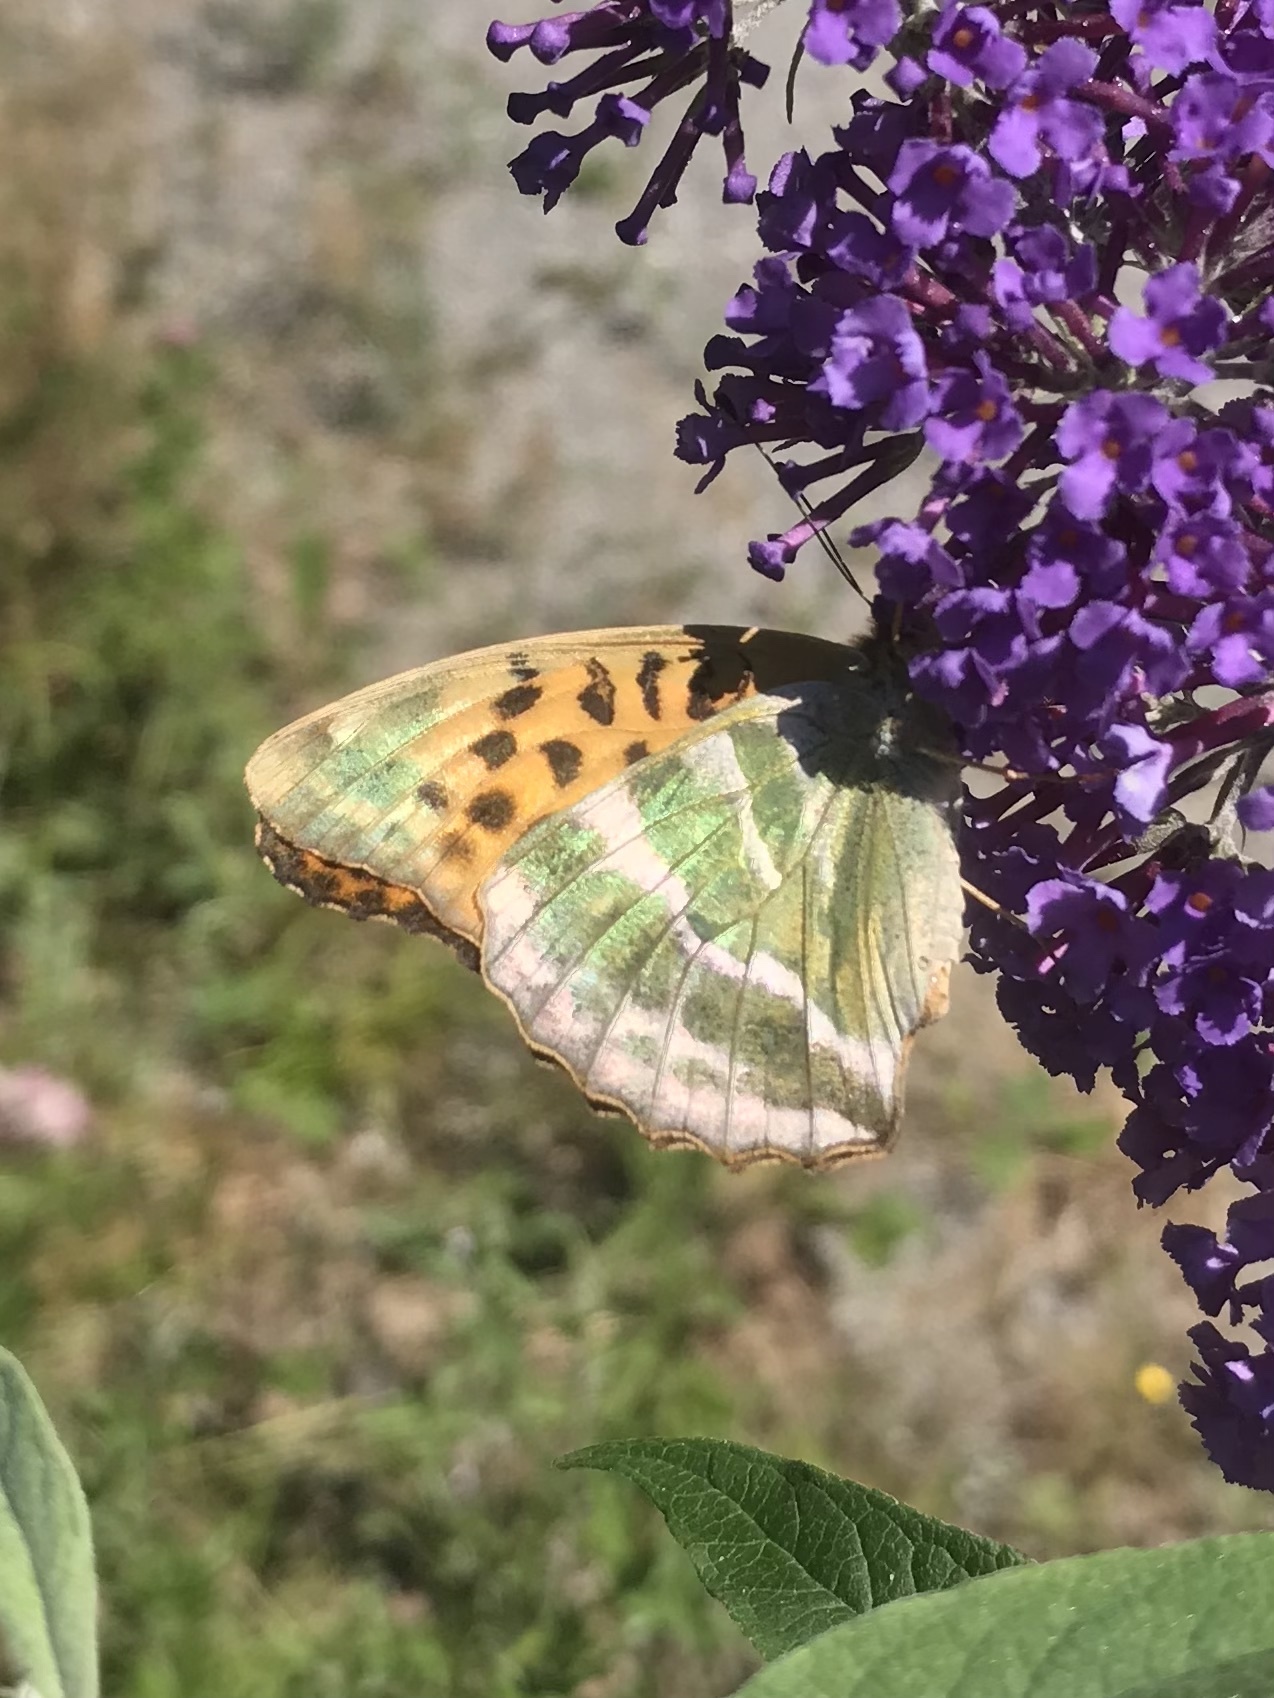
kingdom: Animalia
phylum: Arthropoda
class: Insecta
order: Lepidoptera
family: Nymphalidae
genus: Argynnis
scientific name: Argynnis paphia
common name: Silver-washed fritillary
